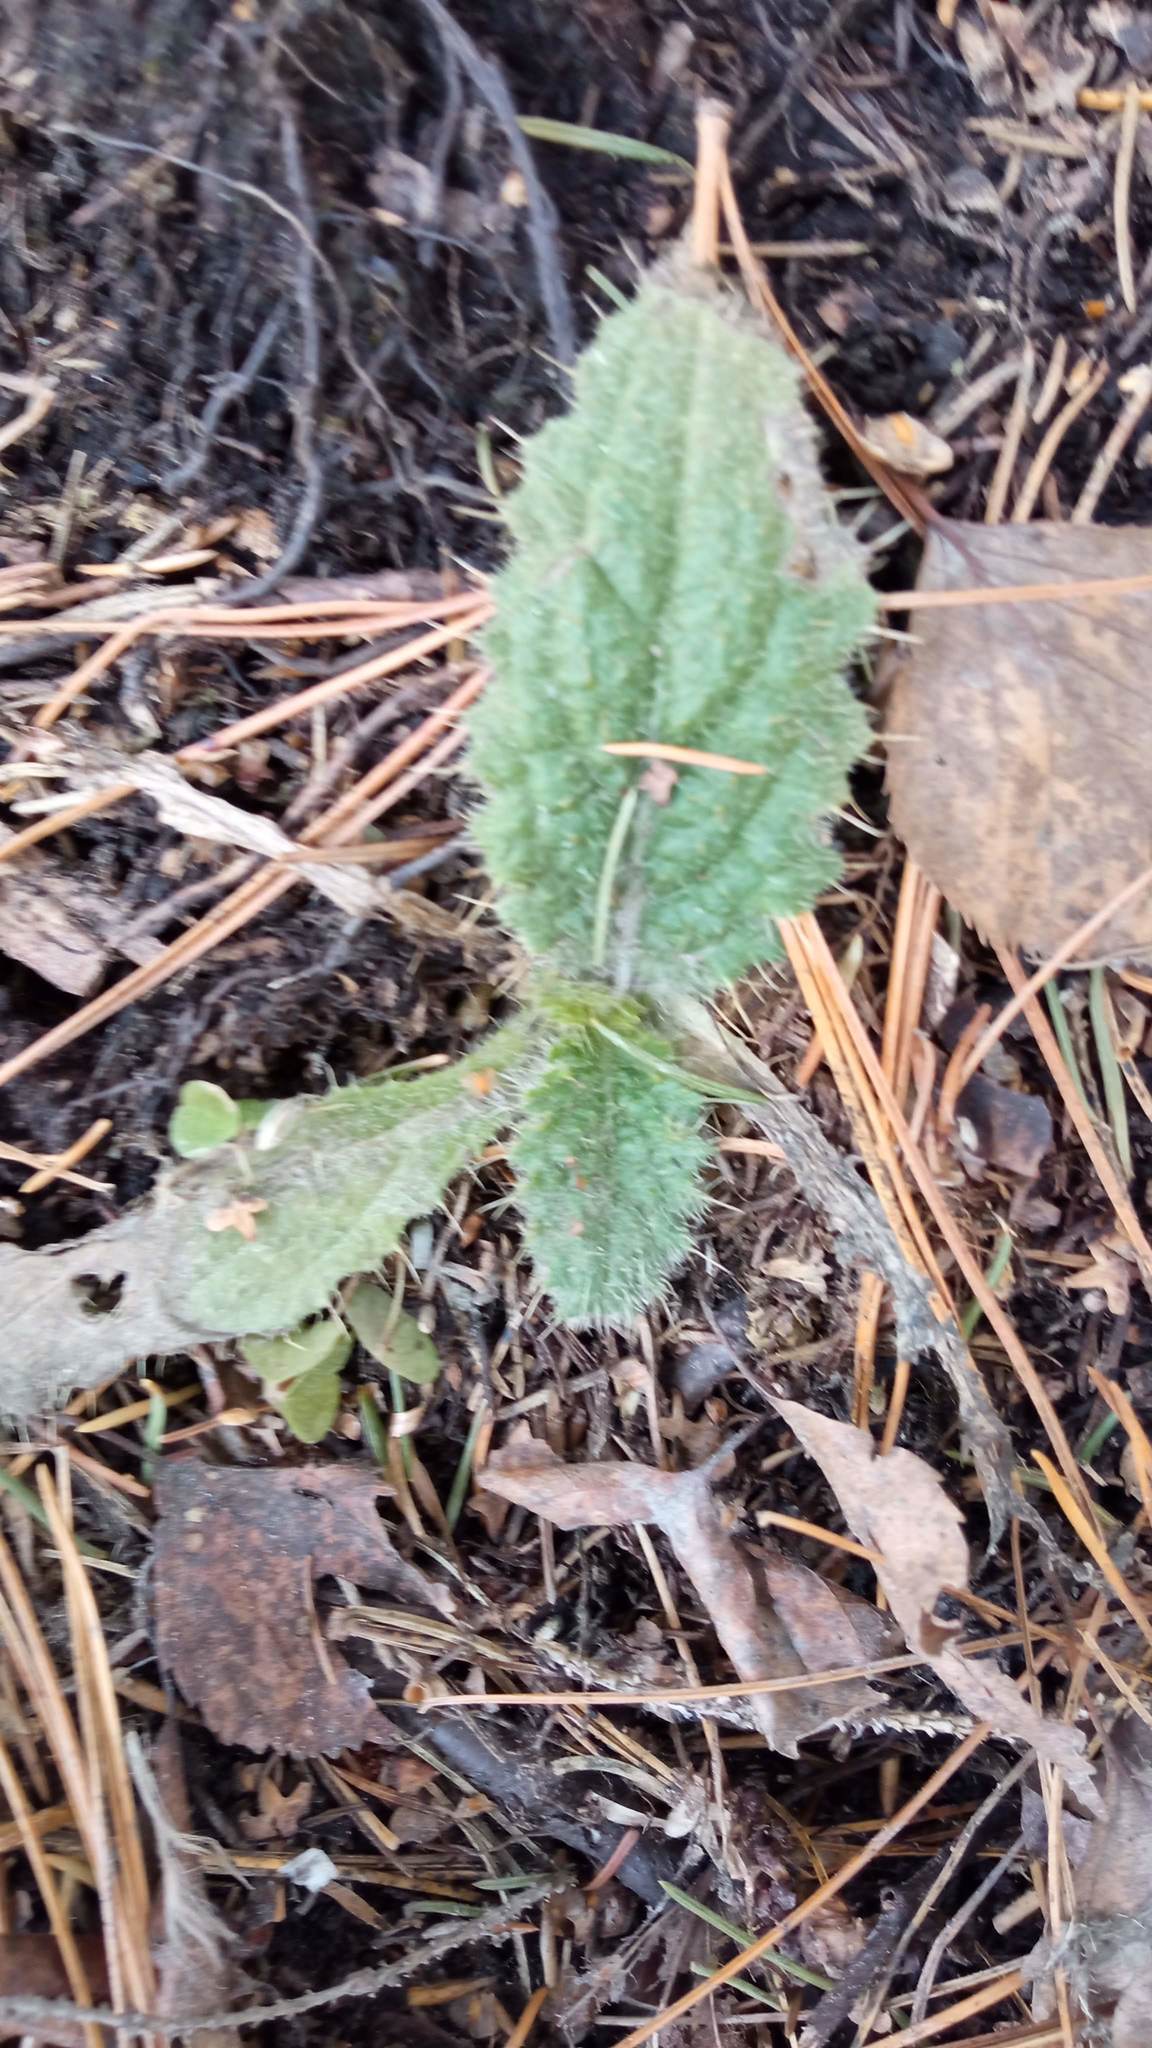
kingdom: Plantae
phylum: Tracheophyta
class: Magnoliopsida
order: Asterales
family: Asteraceae
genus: Cirsium
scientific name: Cirsium vulgare
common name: Bull thistle
